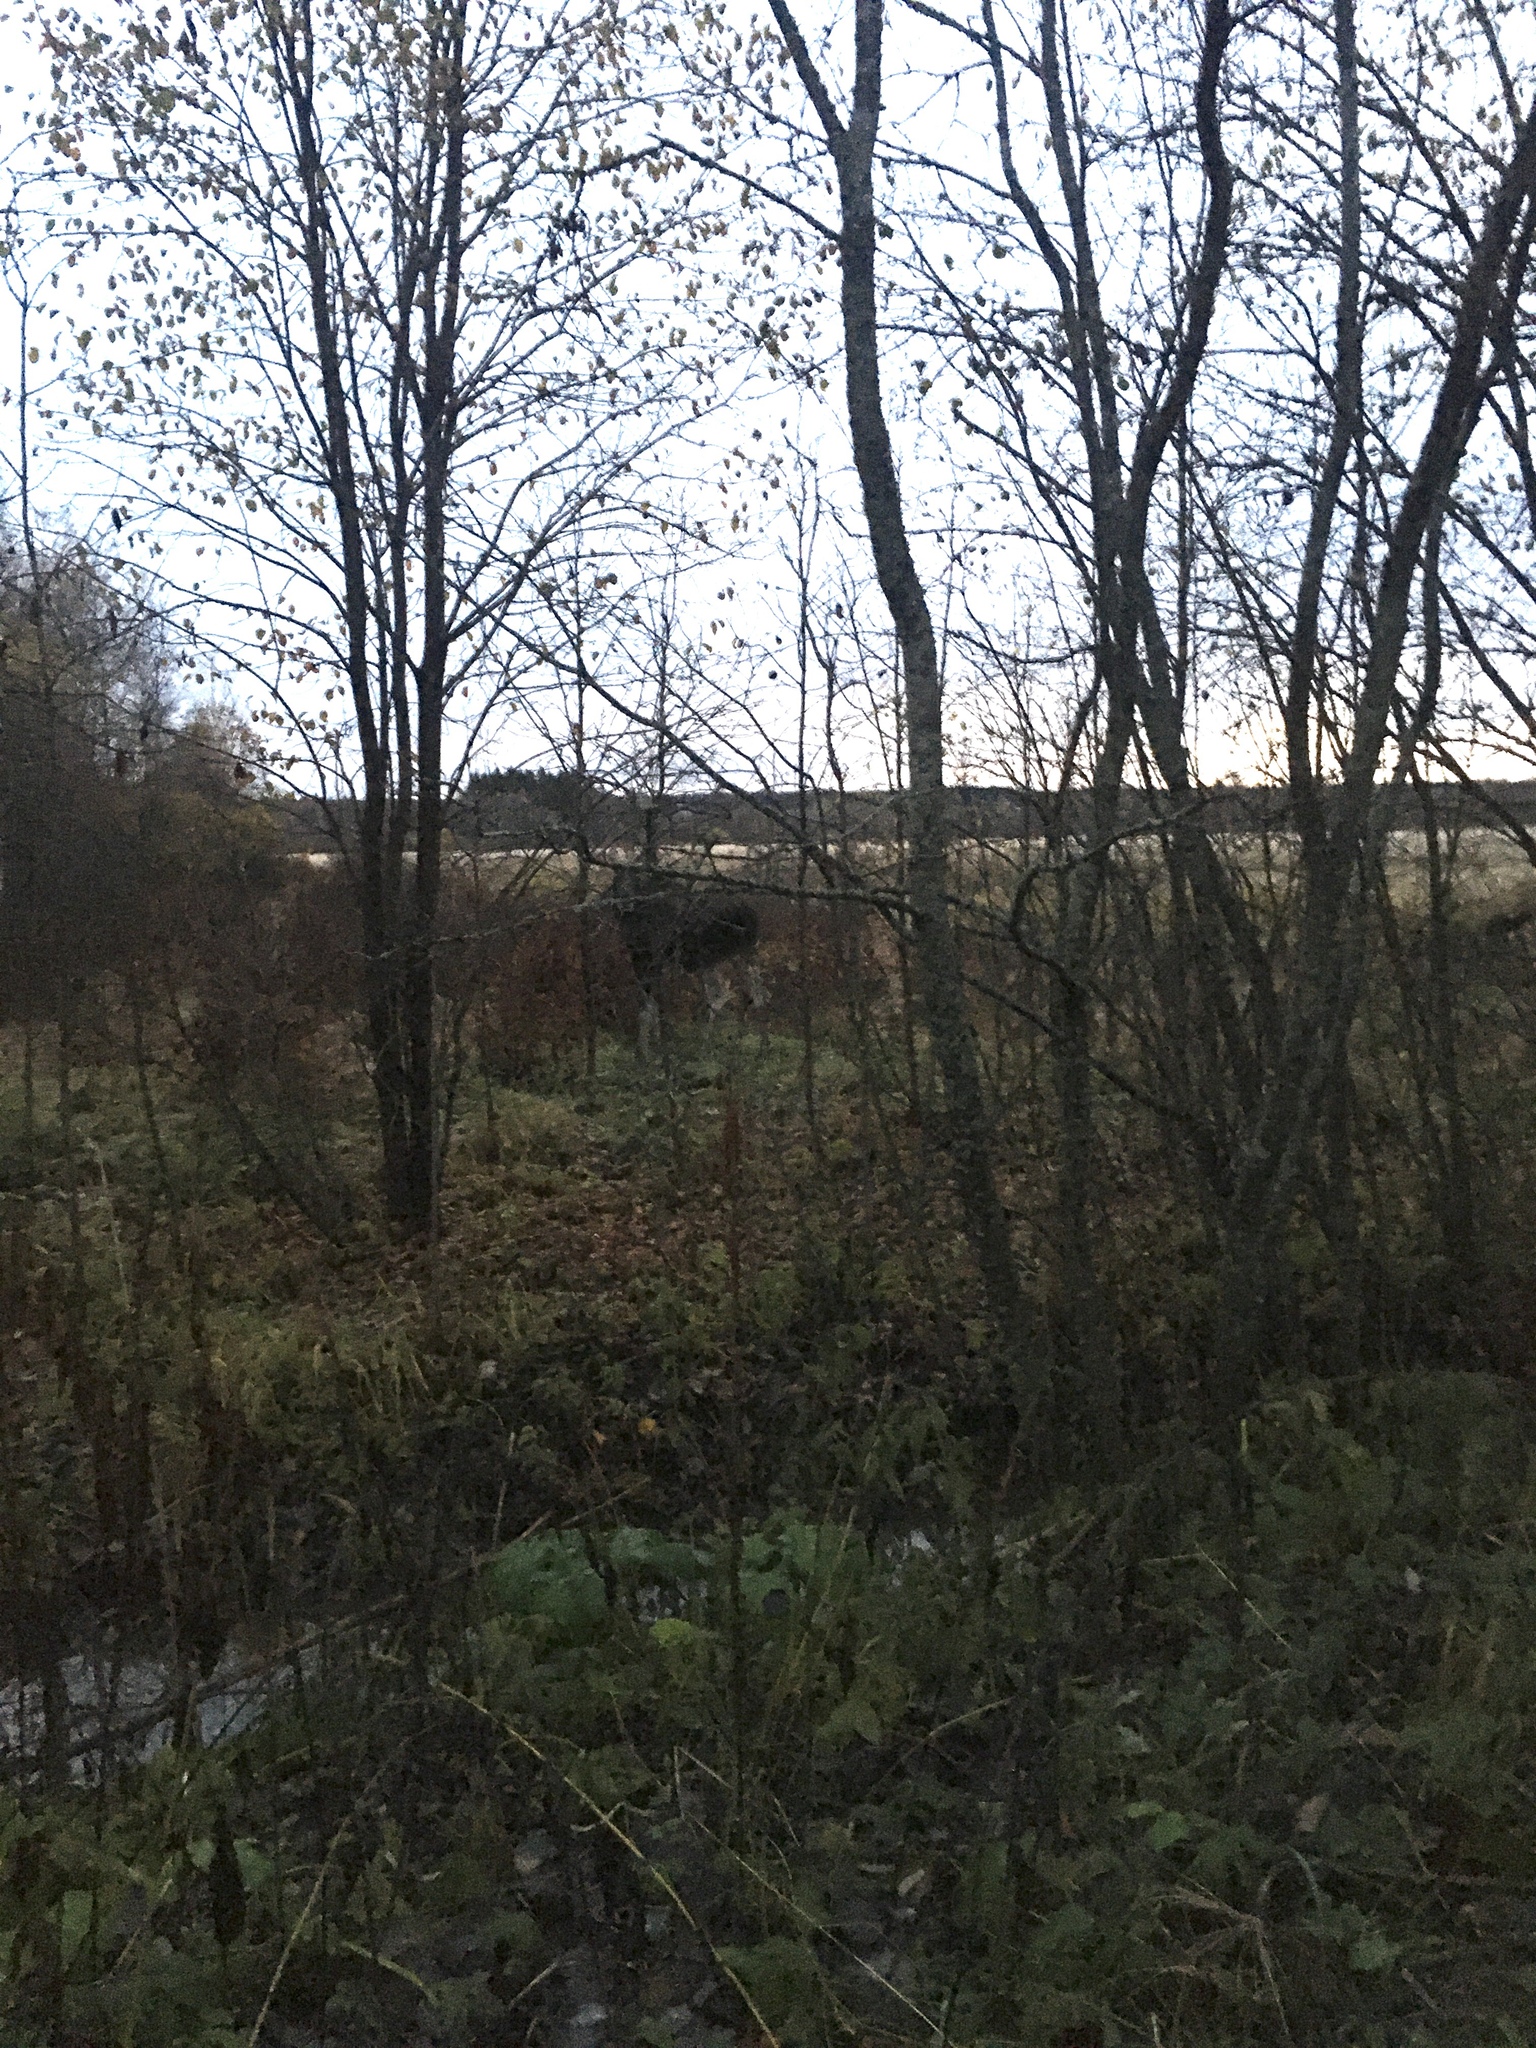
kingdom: Animalia
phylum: Chordata
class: Mammalia
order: Artiodactyla
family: Cervidae
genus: Alces
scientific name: Alces alces
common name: Moose
